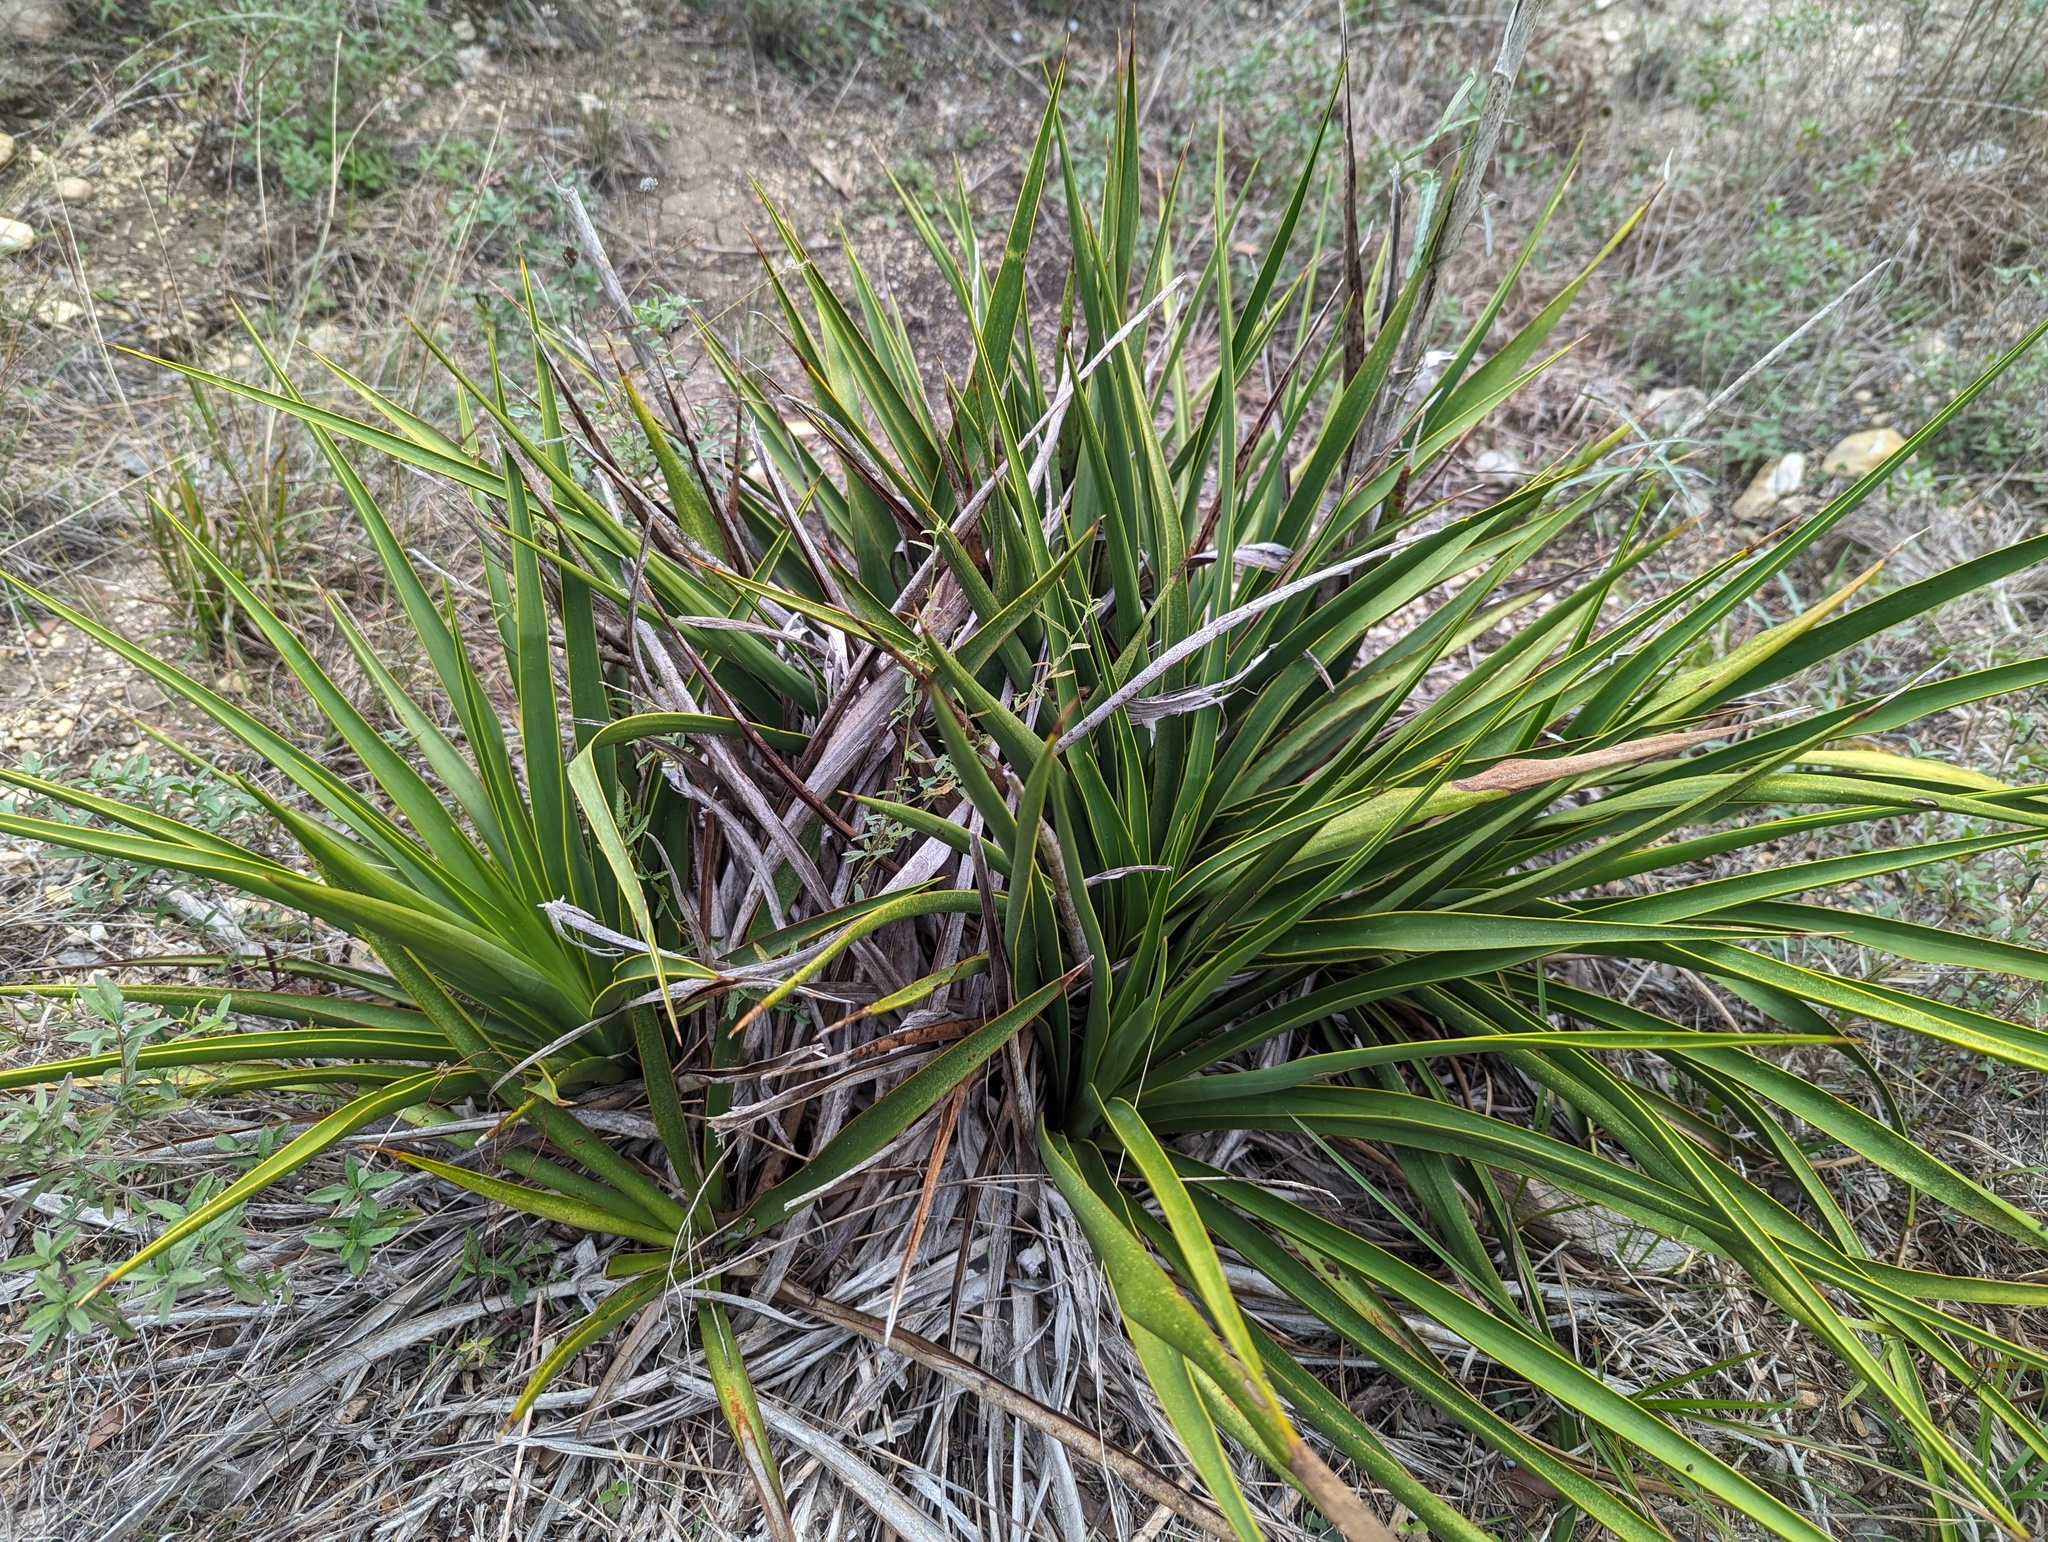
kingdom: Plantae
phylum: Tracheophyta
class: Liliopsida
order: Asparagales
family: Asparagaceae
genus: Yucca
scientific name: Yucca rupicola
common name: Twisted-leaf spanish-dagger
